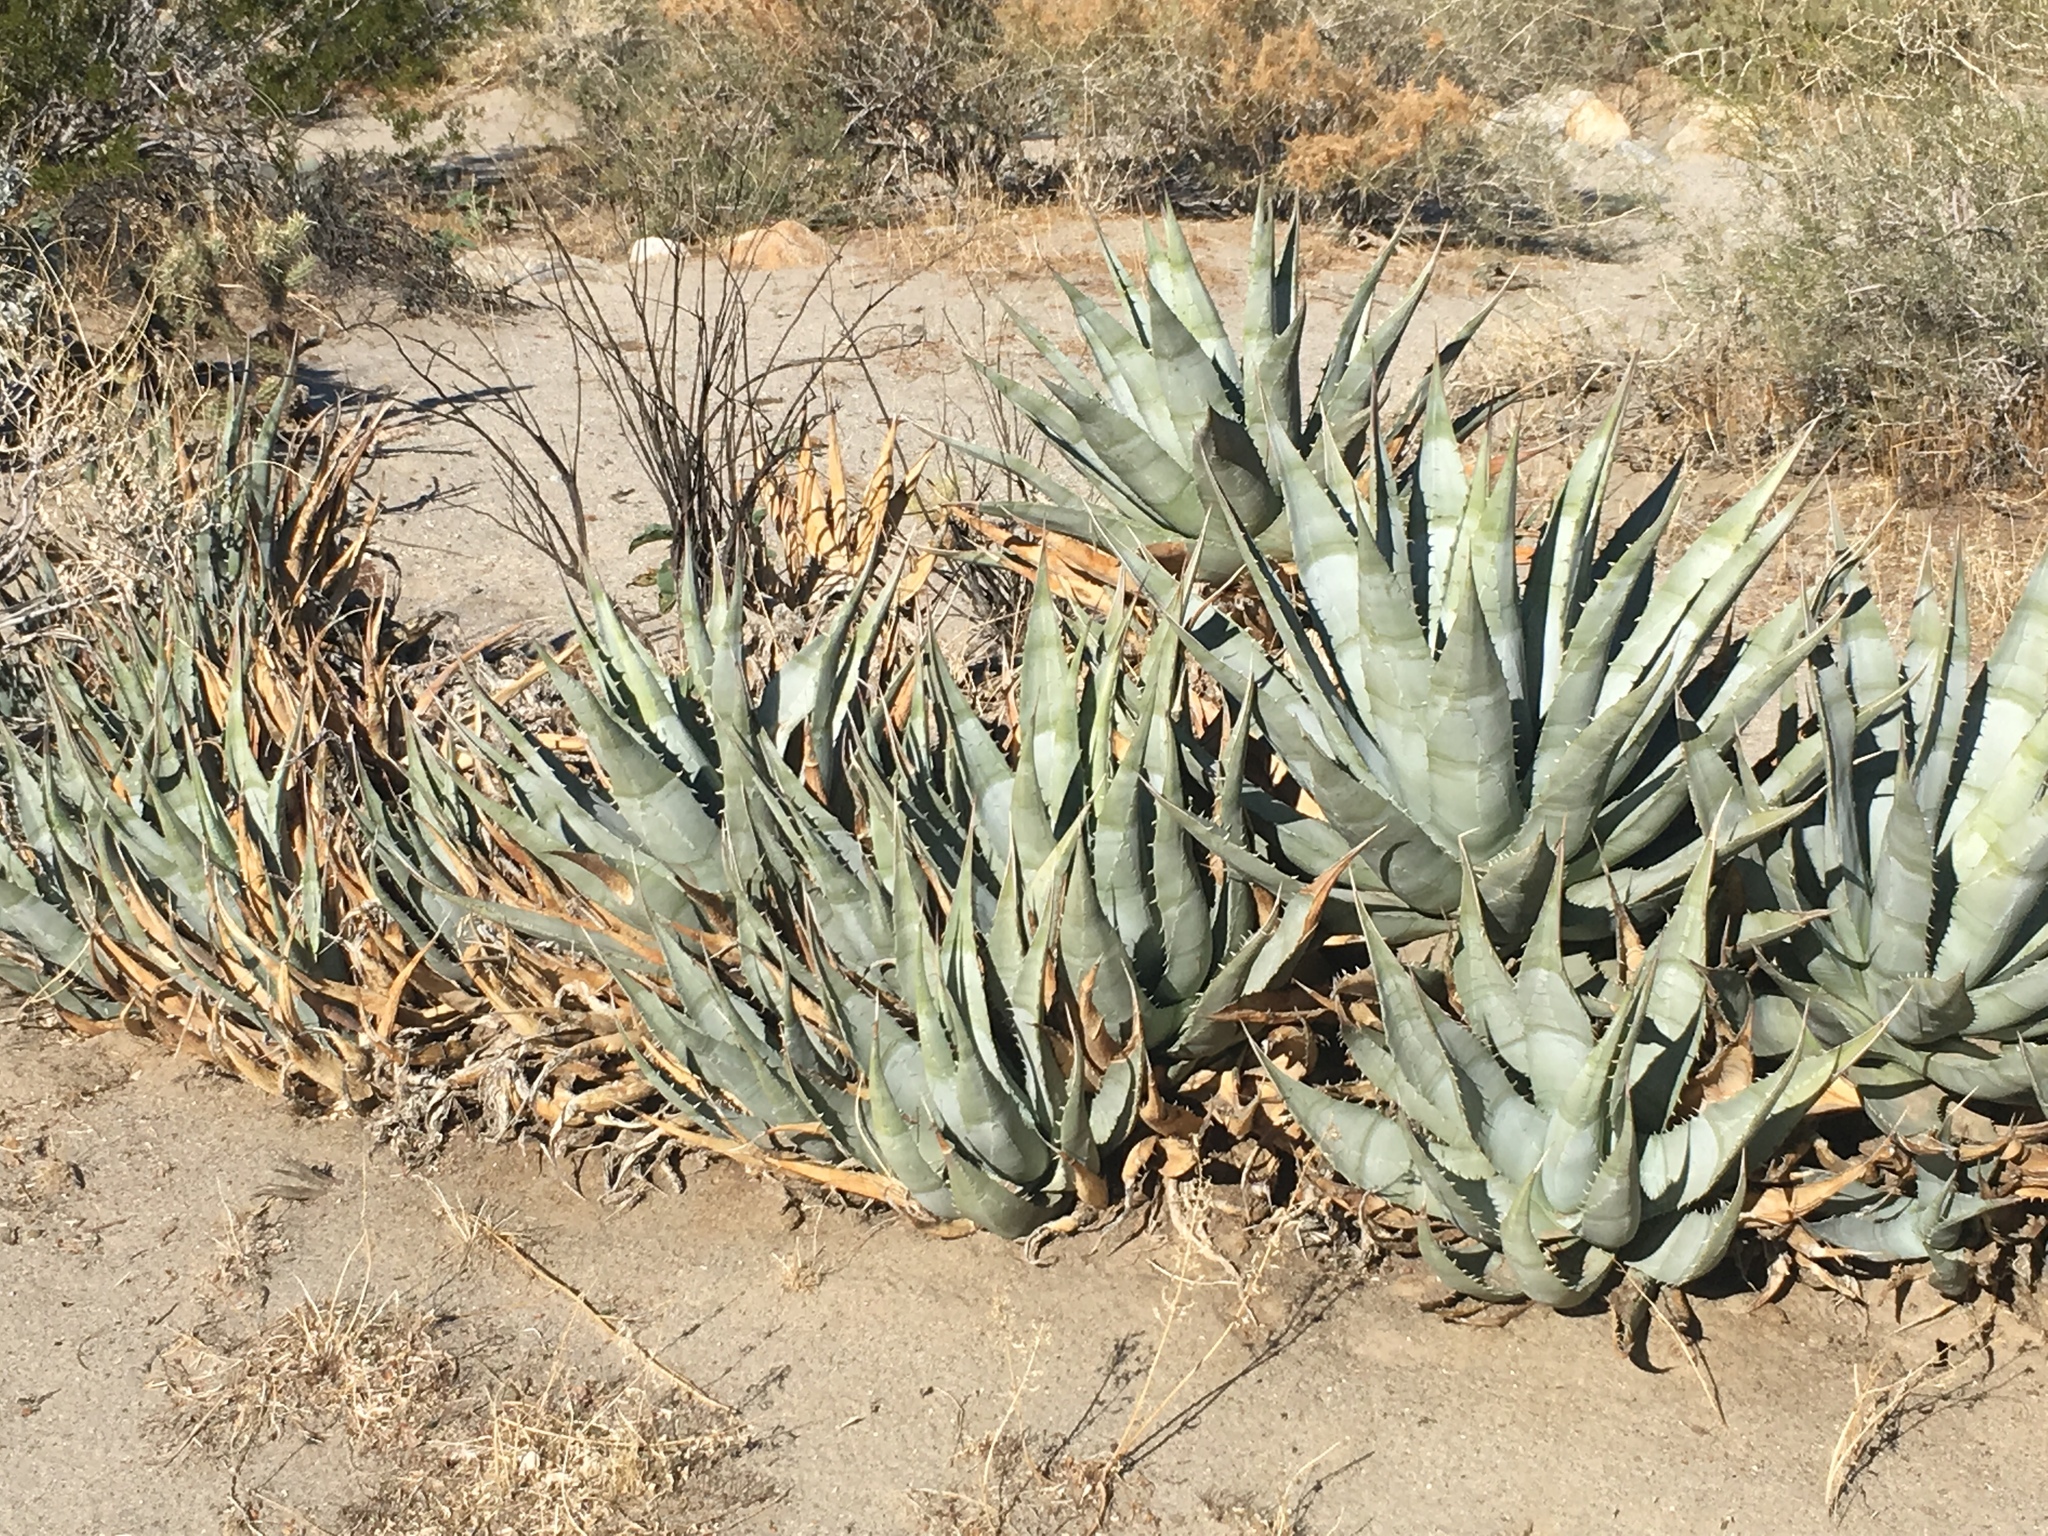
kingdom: Plantae
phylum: Tracheophyta
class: Liliopsida
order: Asparagales
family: Asparagaceae
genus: Agave
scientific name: Agave deserti
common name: Desert agave
